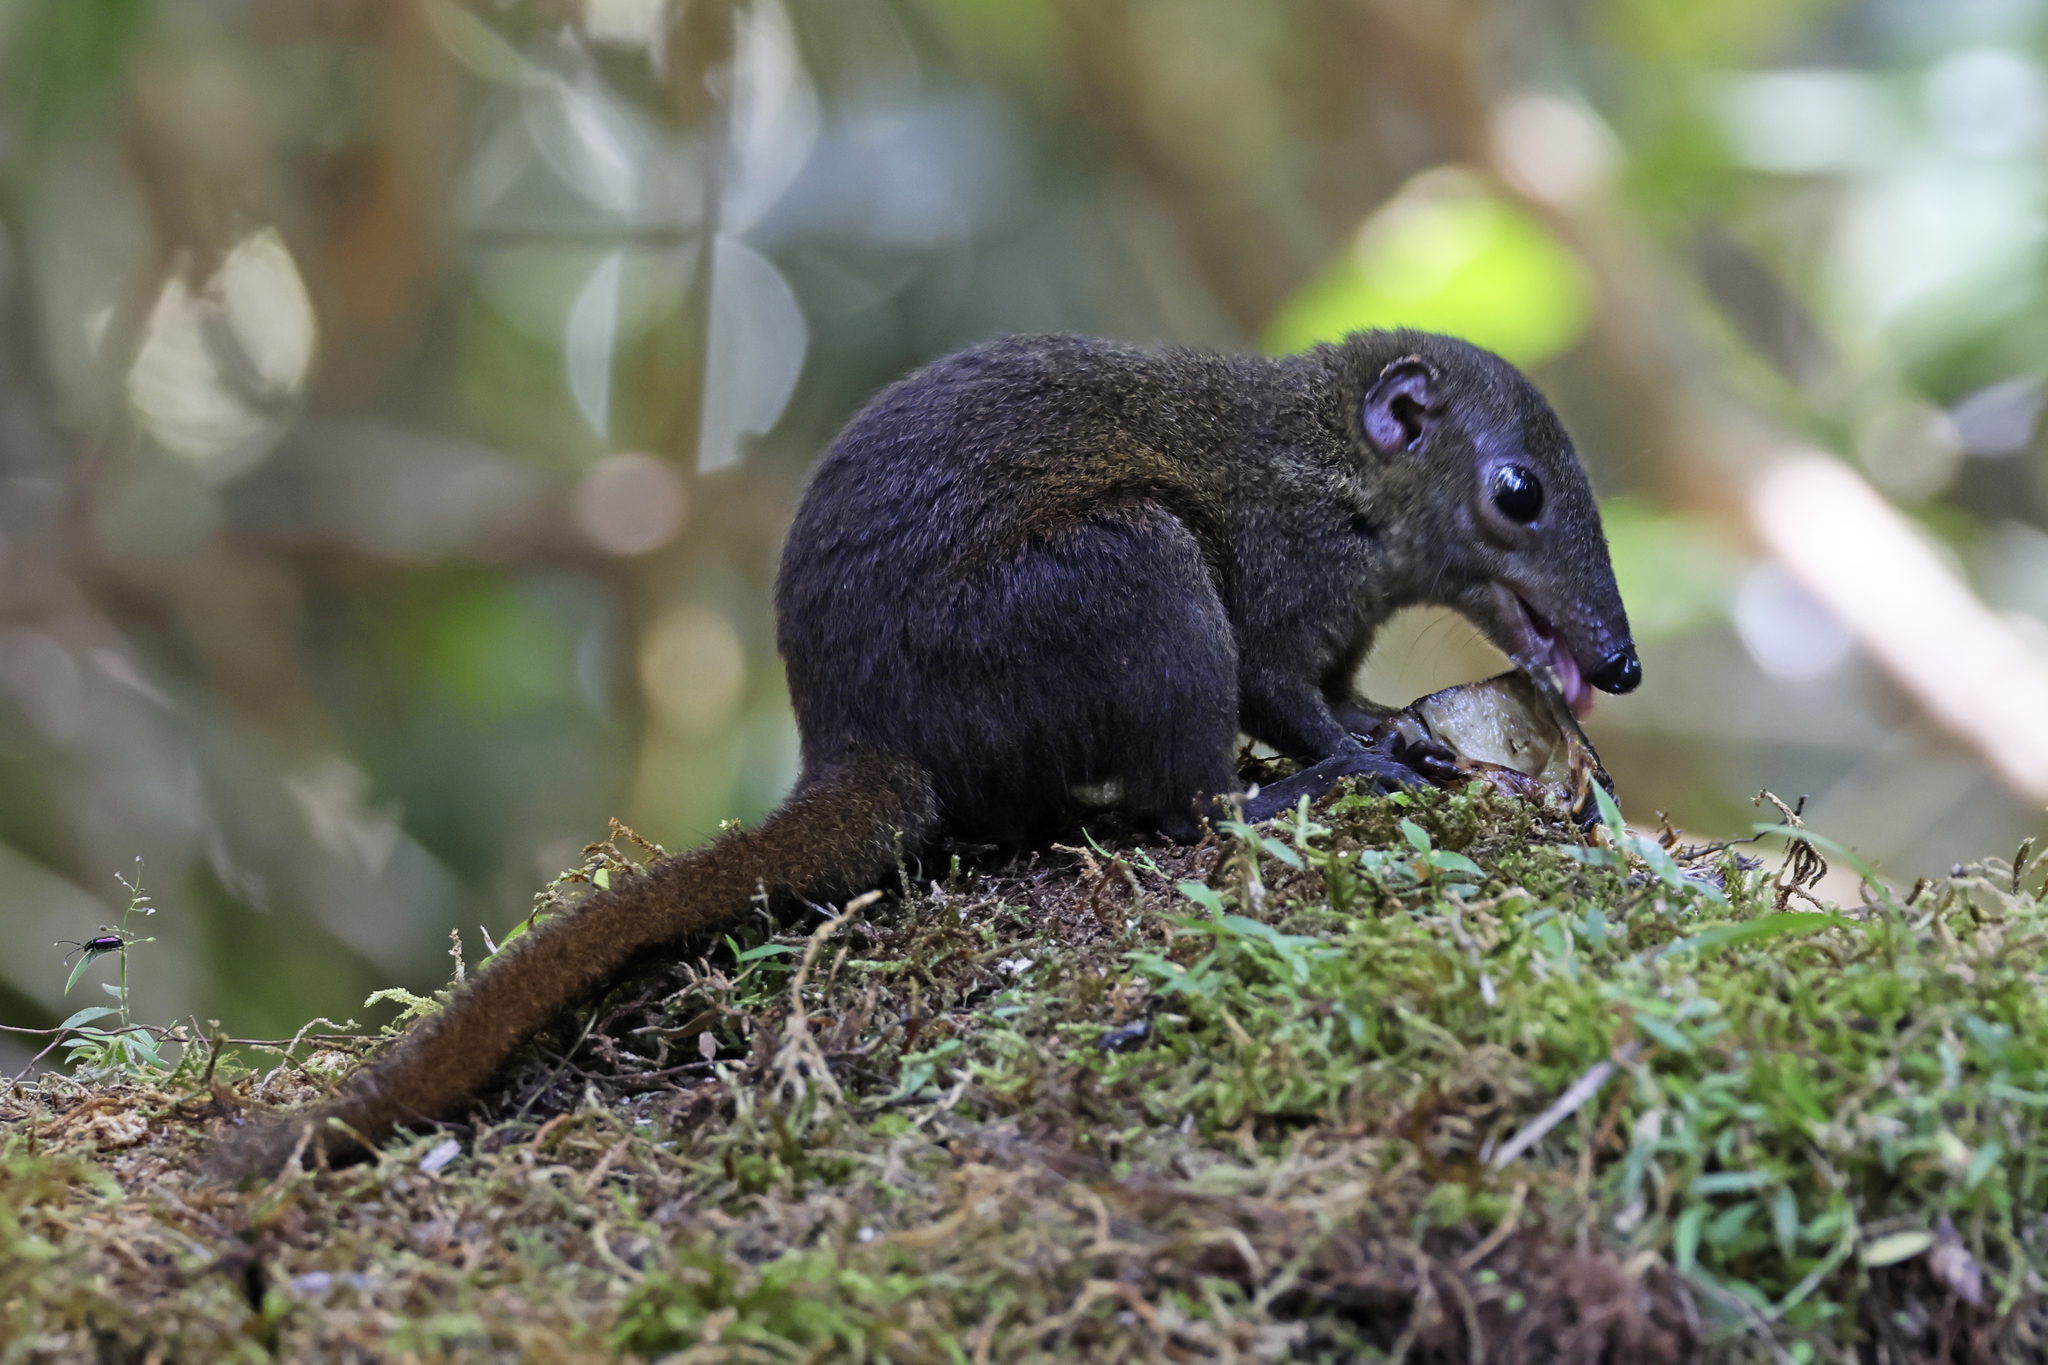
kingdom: Animalia
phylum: Chordata
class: Mammalia
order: Scandentia
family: Tupaiidae
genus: Tupaia
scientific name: Tupaia montana
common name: Mountain treeshrew
